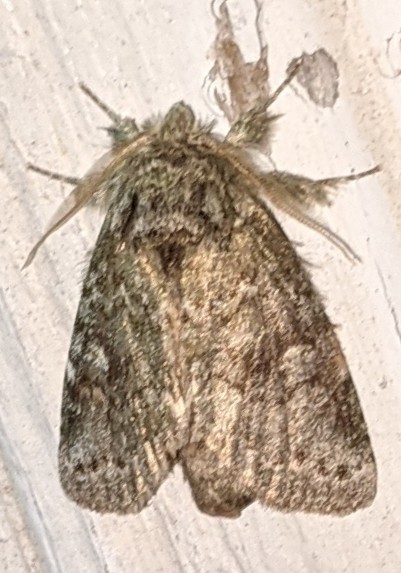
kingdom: Animalia
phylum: Arthropoda
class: Insecta
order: Lepidoptera
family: Notodontidae
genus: Disphragis
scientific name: Disphragis Cecrita guttivitta
